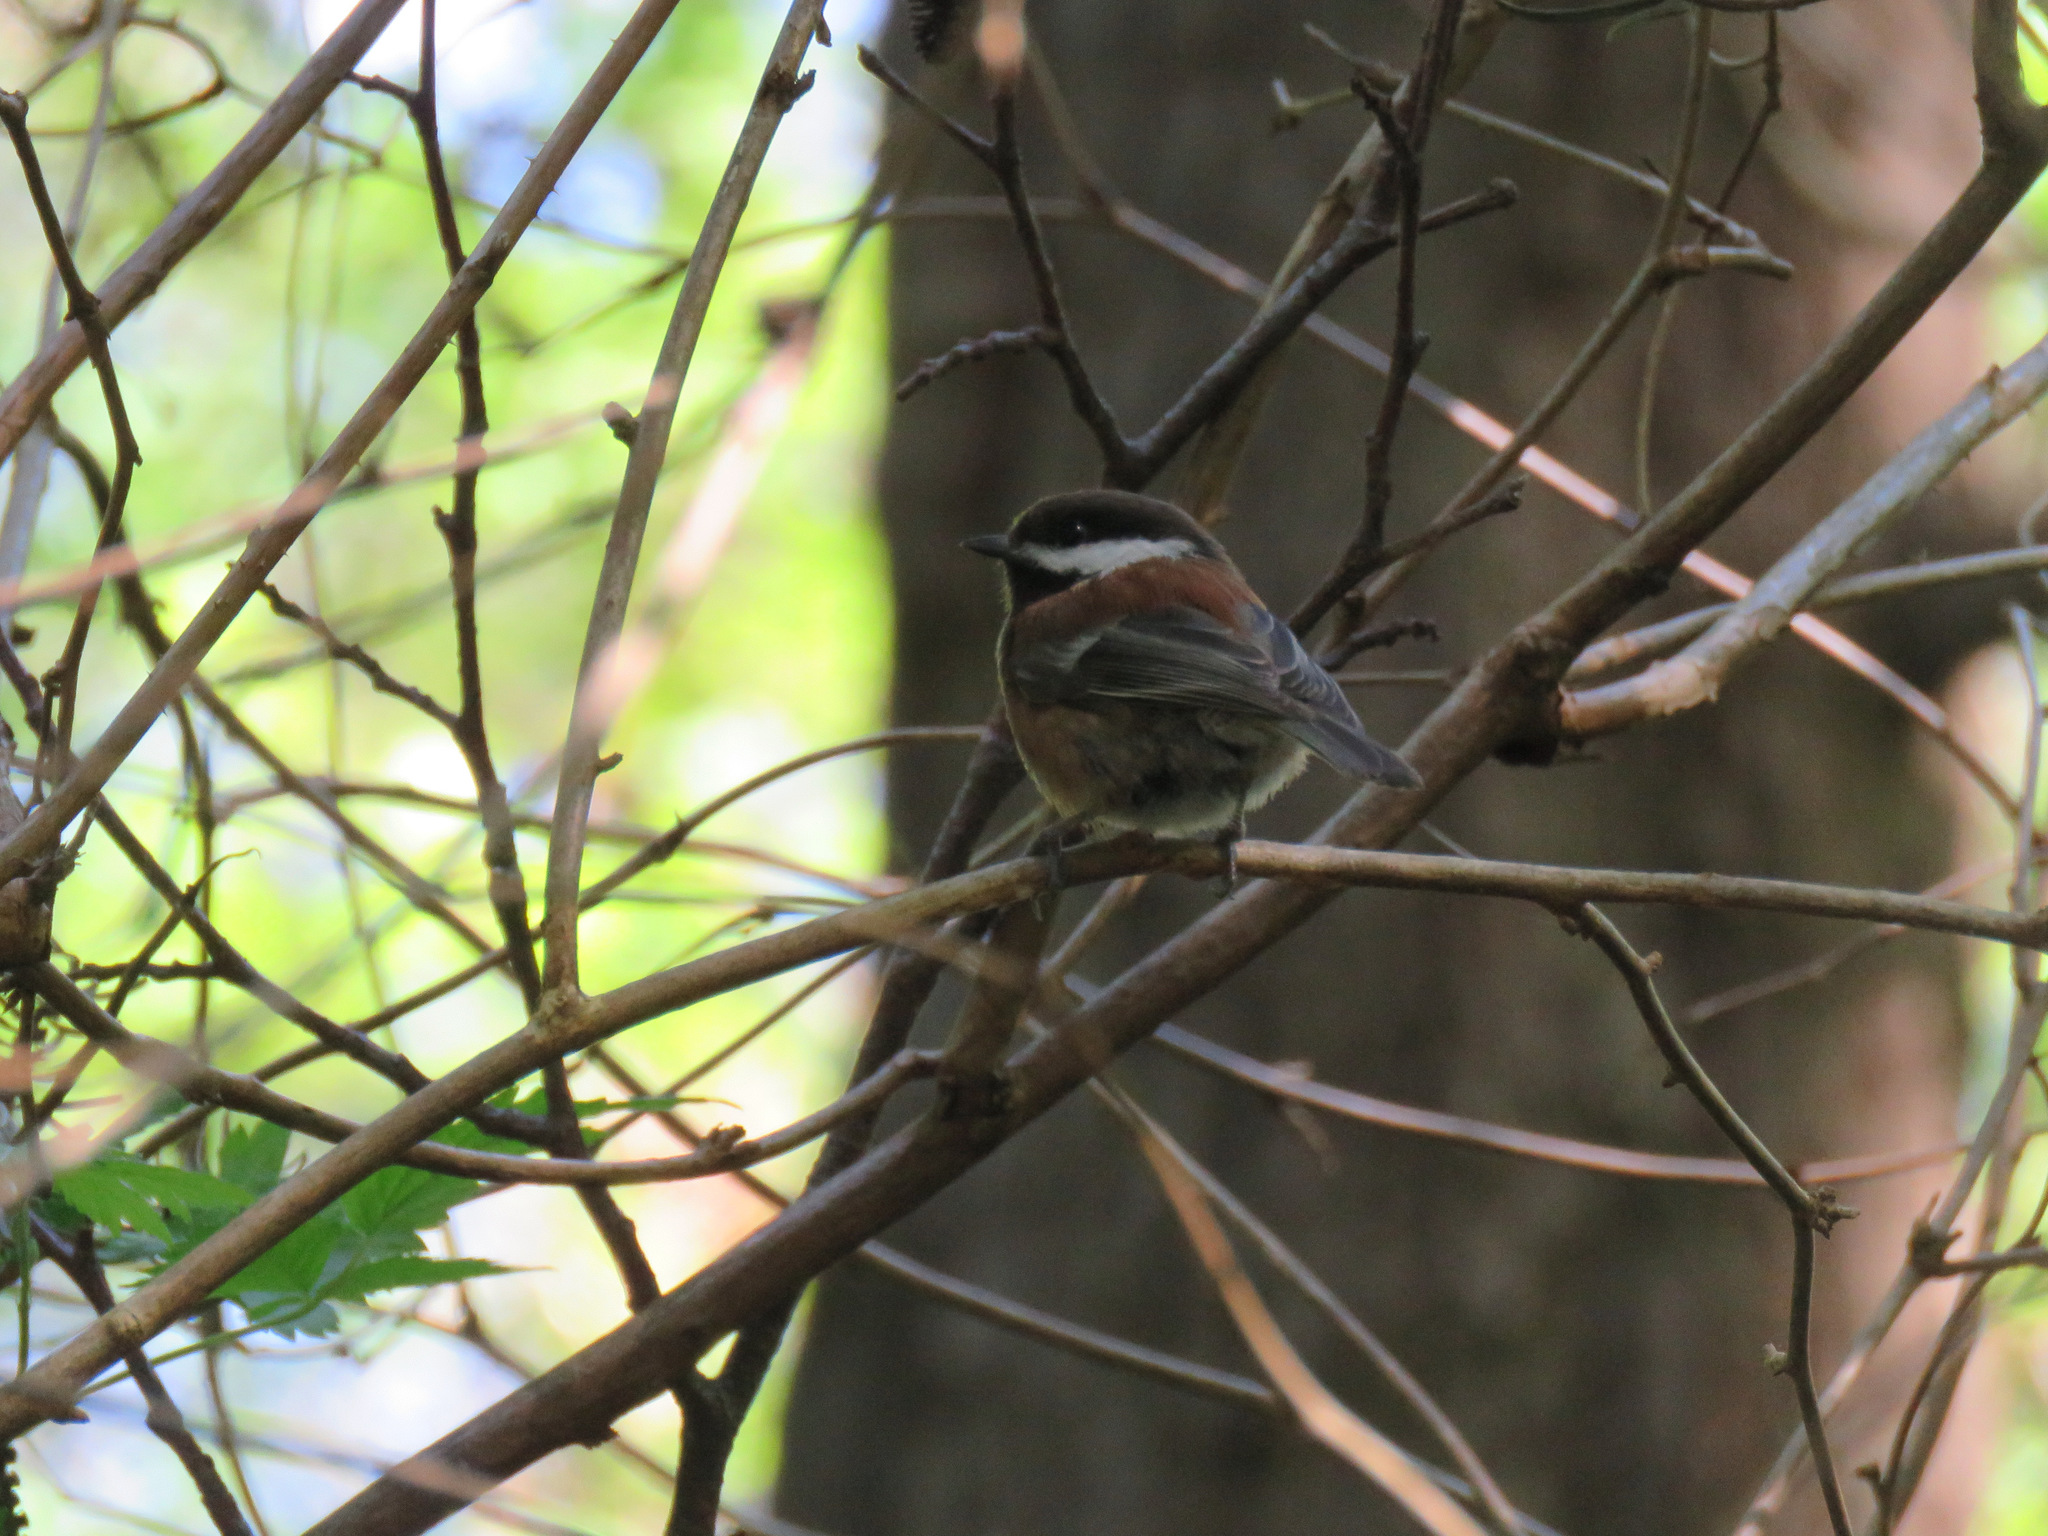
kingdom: Animalia
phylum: Chordata
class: Aves
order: Passeriformes
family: Paridae
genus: Poecile
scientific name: Poecile rufescens
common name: Chestnut-backed chickadee
